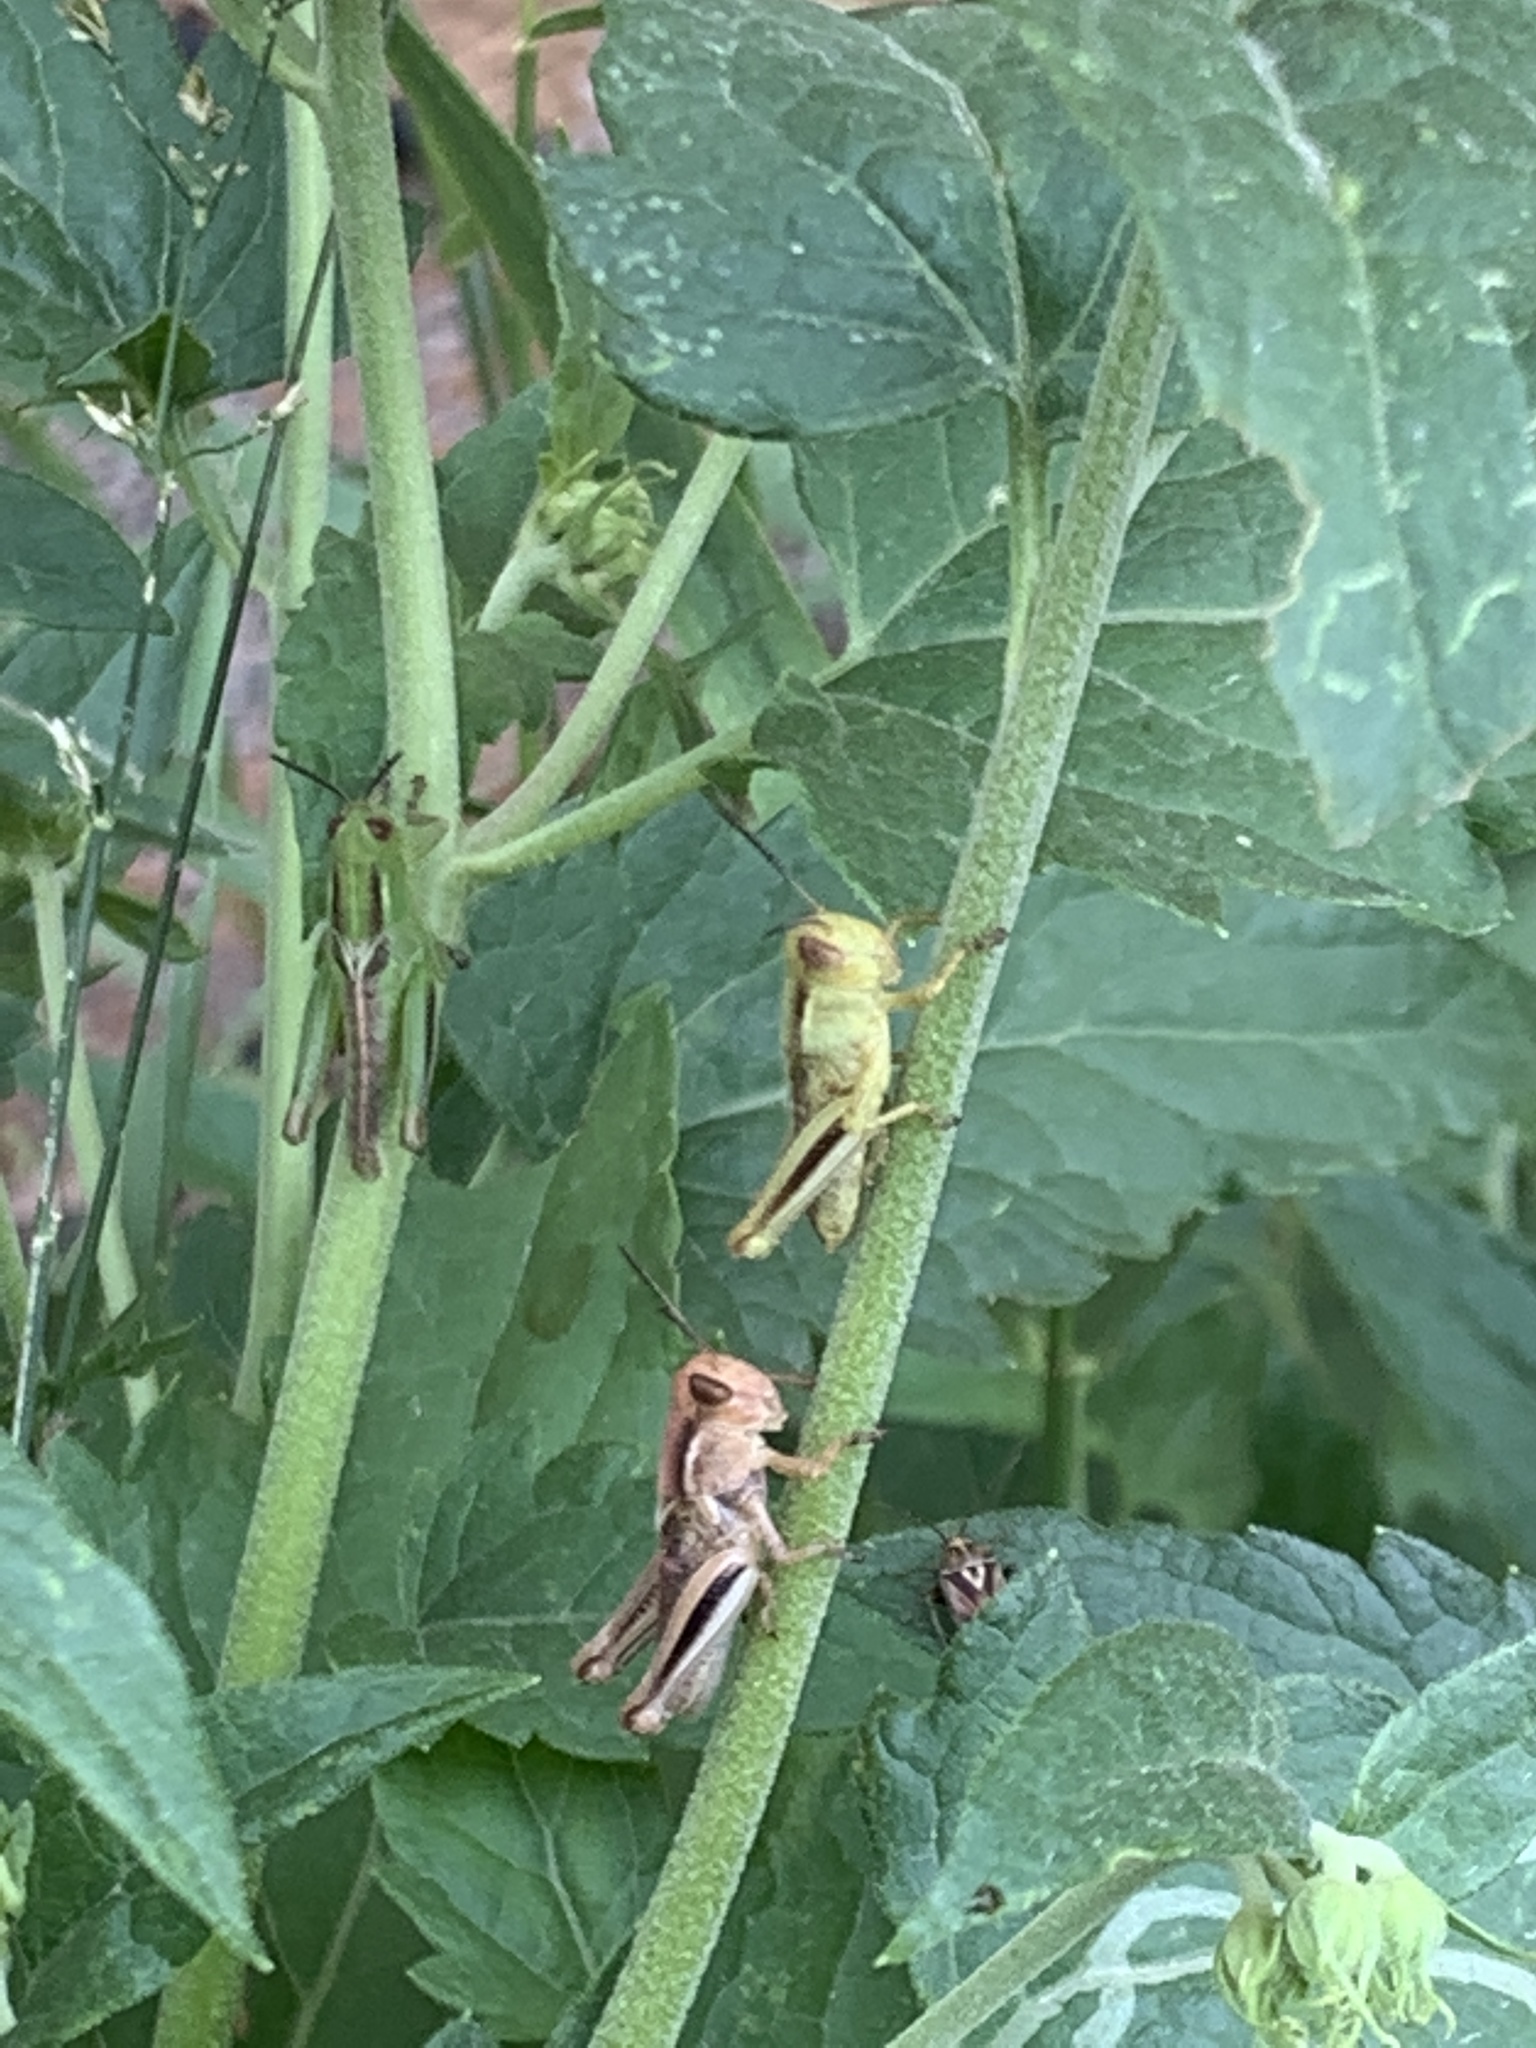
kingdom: Animalia
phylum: Arthropoda
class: Insecta
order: Orthoptera
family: Acrididae
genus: Melanoplus
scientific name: Melanoplus bivittatus
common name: Two-striped grasshopper
